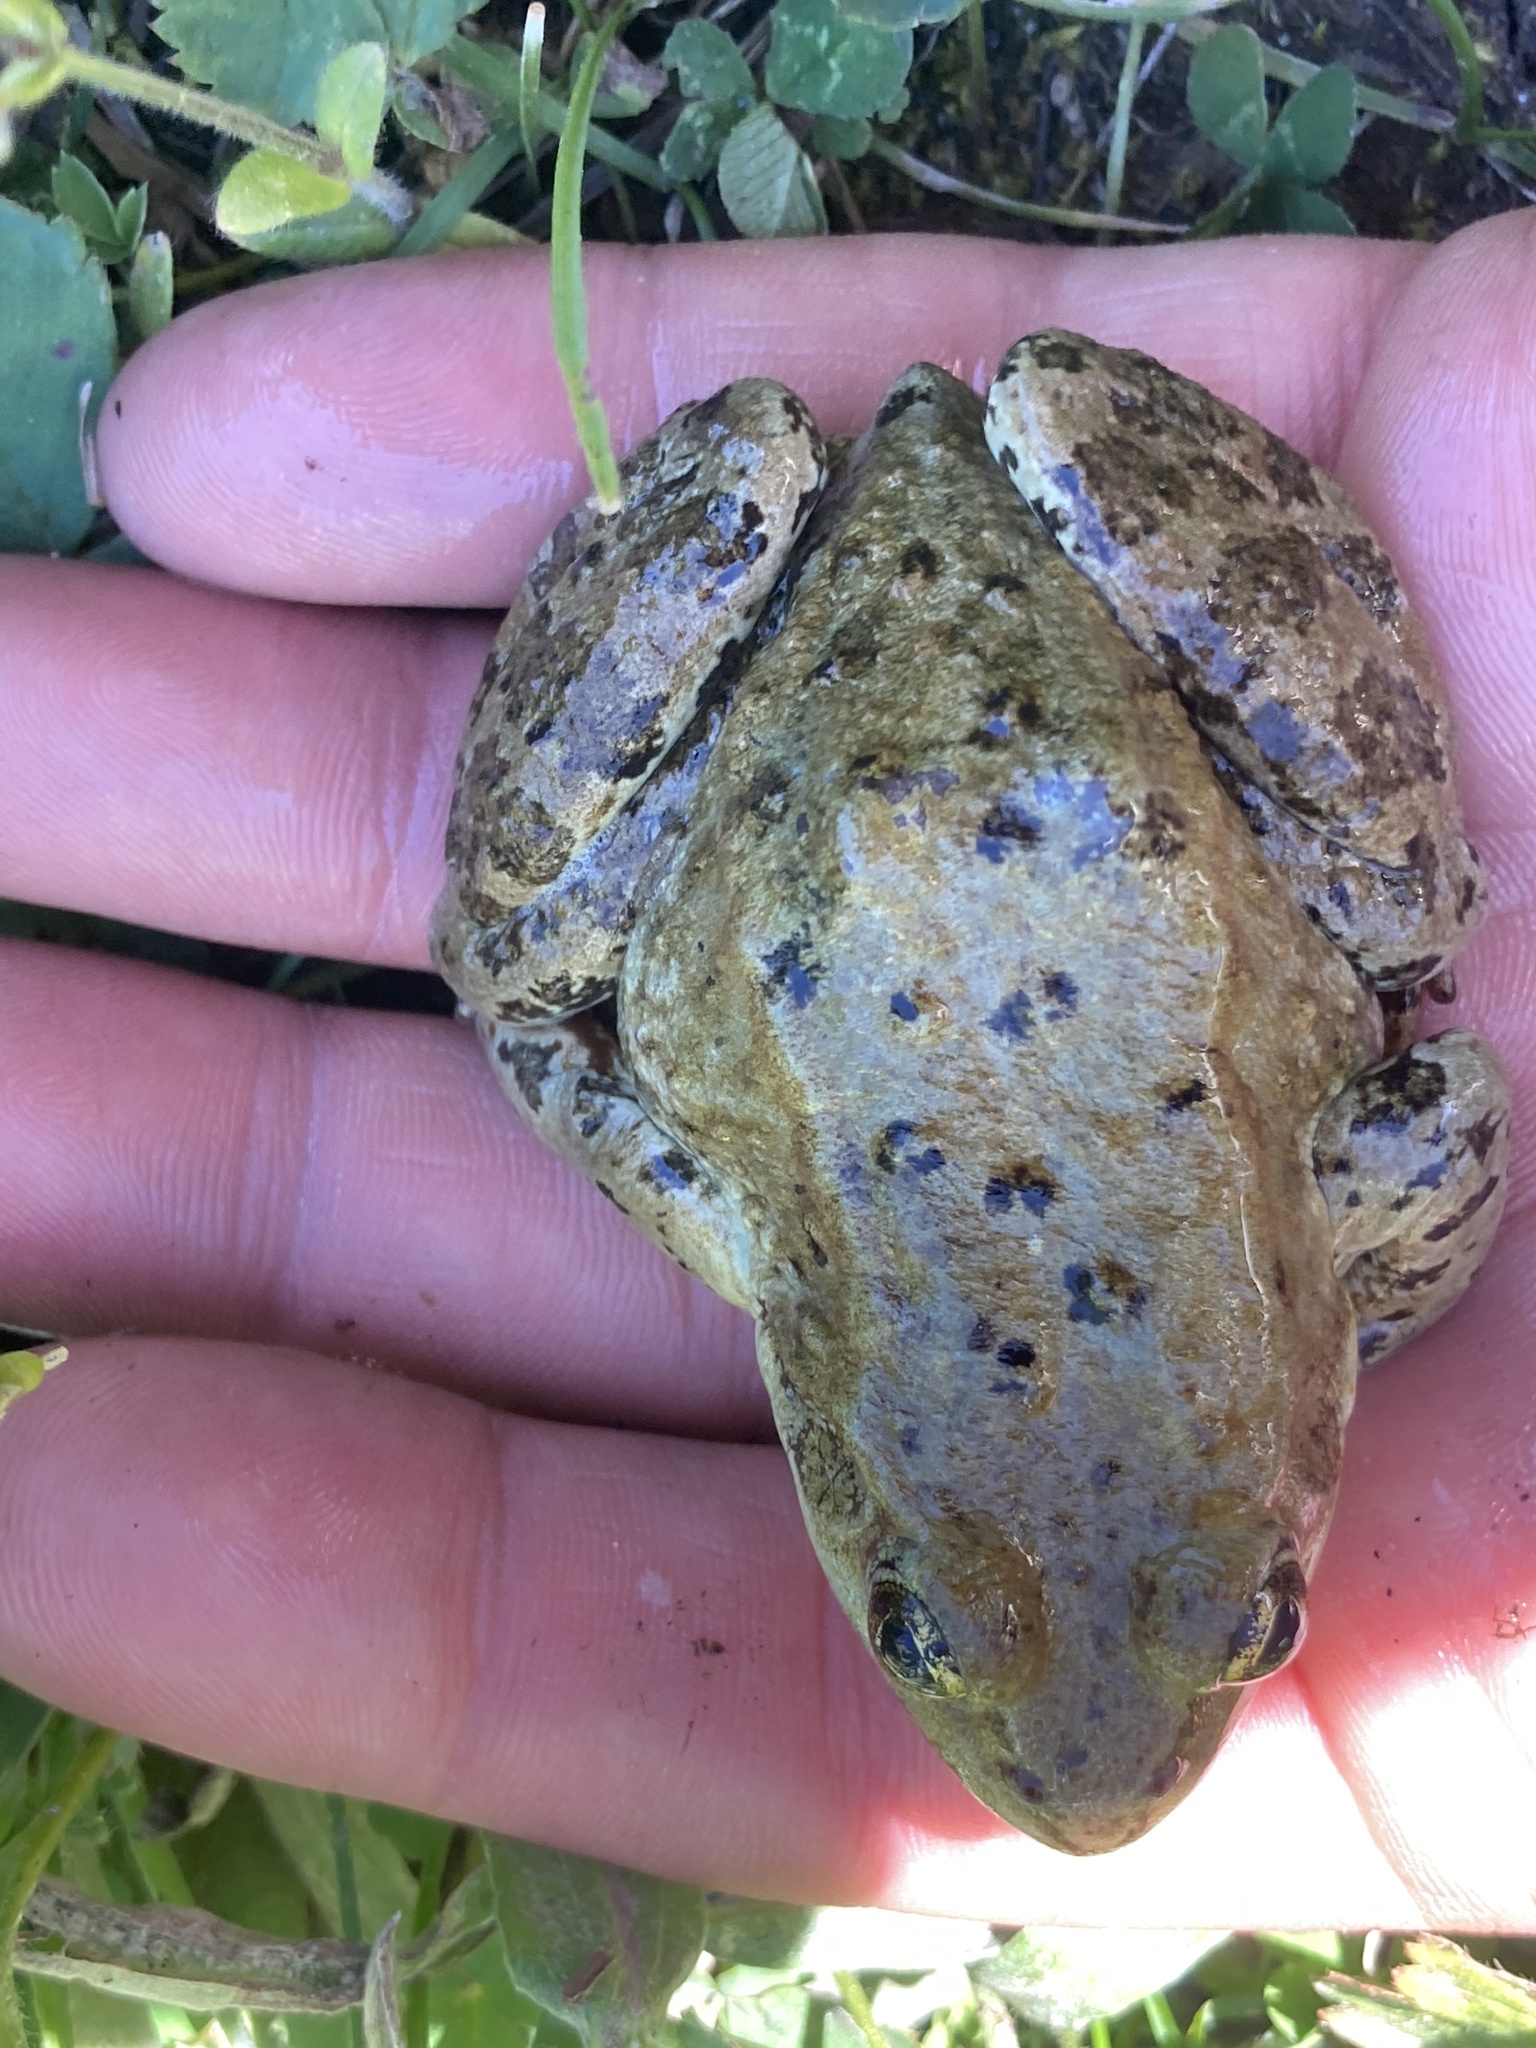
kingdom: Animalia
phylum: Chordata
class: Amphibia
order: Anura
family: Ranidae
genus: Rana
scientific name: Rana luteiventris
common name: Columbia spotted frog
